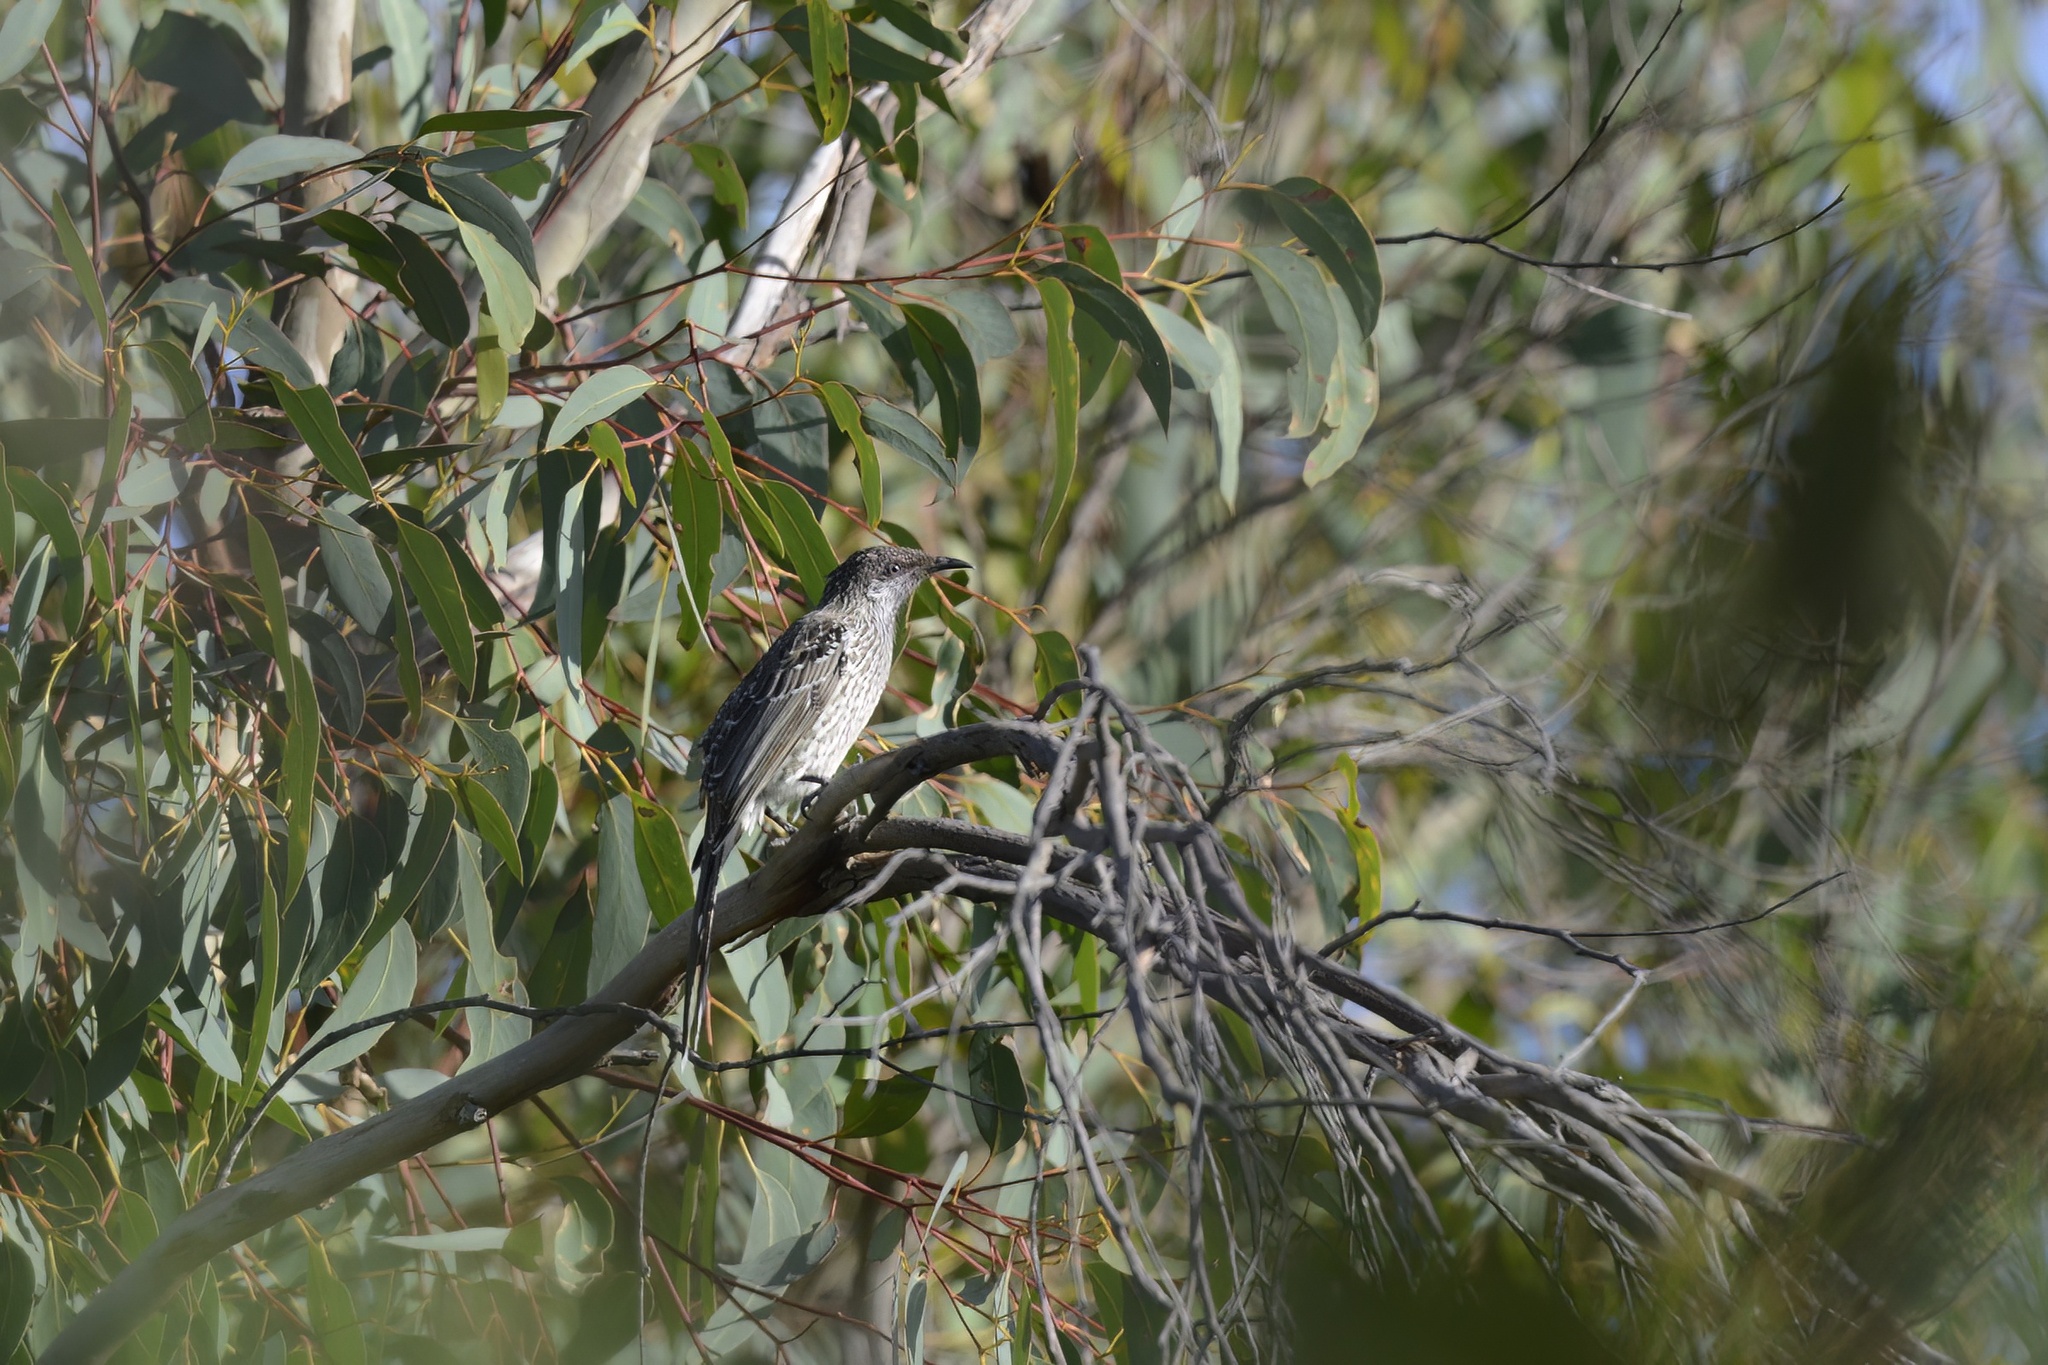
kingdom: Animalia
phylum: Chordata
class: Aves
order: Passeriformes
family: Meliphagidae
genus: Anthochaera
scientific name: Anthochaera chrysoptera
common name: Little wattlebird
